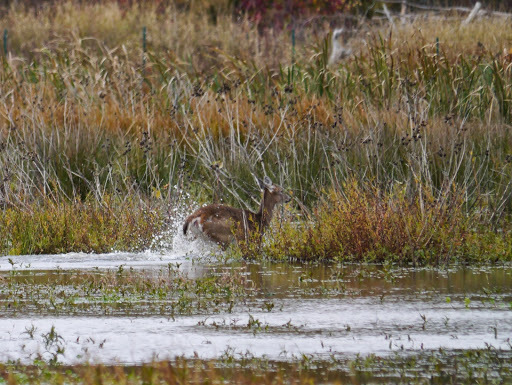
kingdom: Animalia
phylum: Chordata
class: Mammalia
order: Artiodactyla
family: Cervidae
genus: Odocoileus
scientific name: Odocoileus virginianus
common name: White-tailed deer
